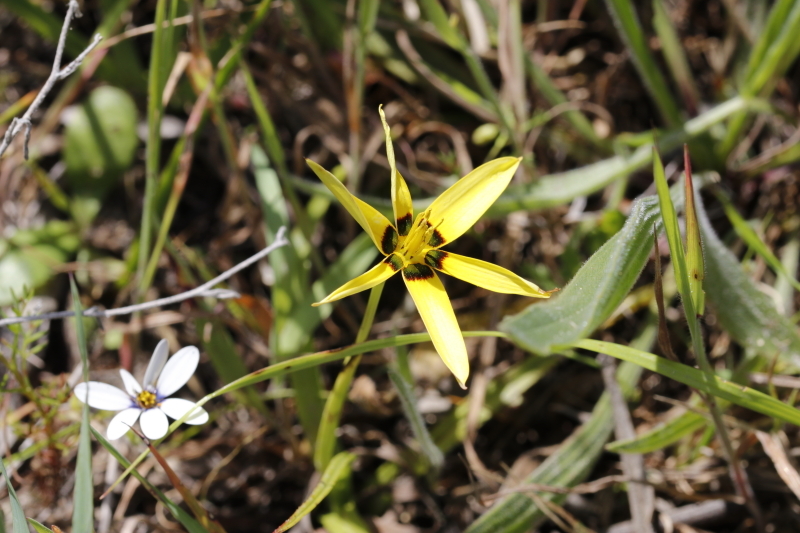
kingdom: Plantae
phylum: Tracheophyta
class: Liliopsida
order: Asparagales
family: Hypoxidaceae
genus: Pauridia
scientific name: Pauridia capensis
